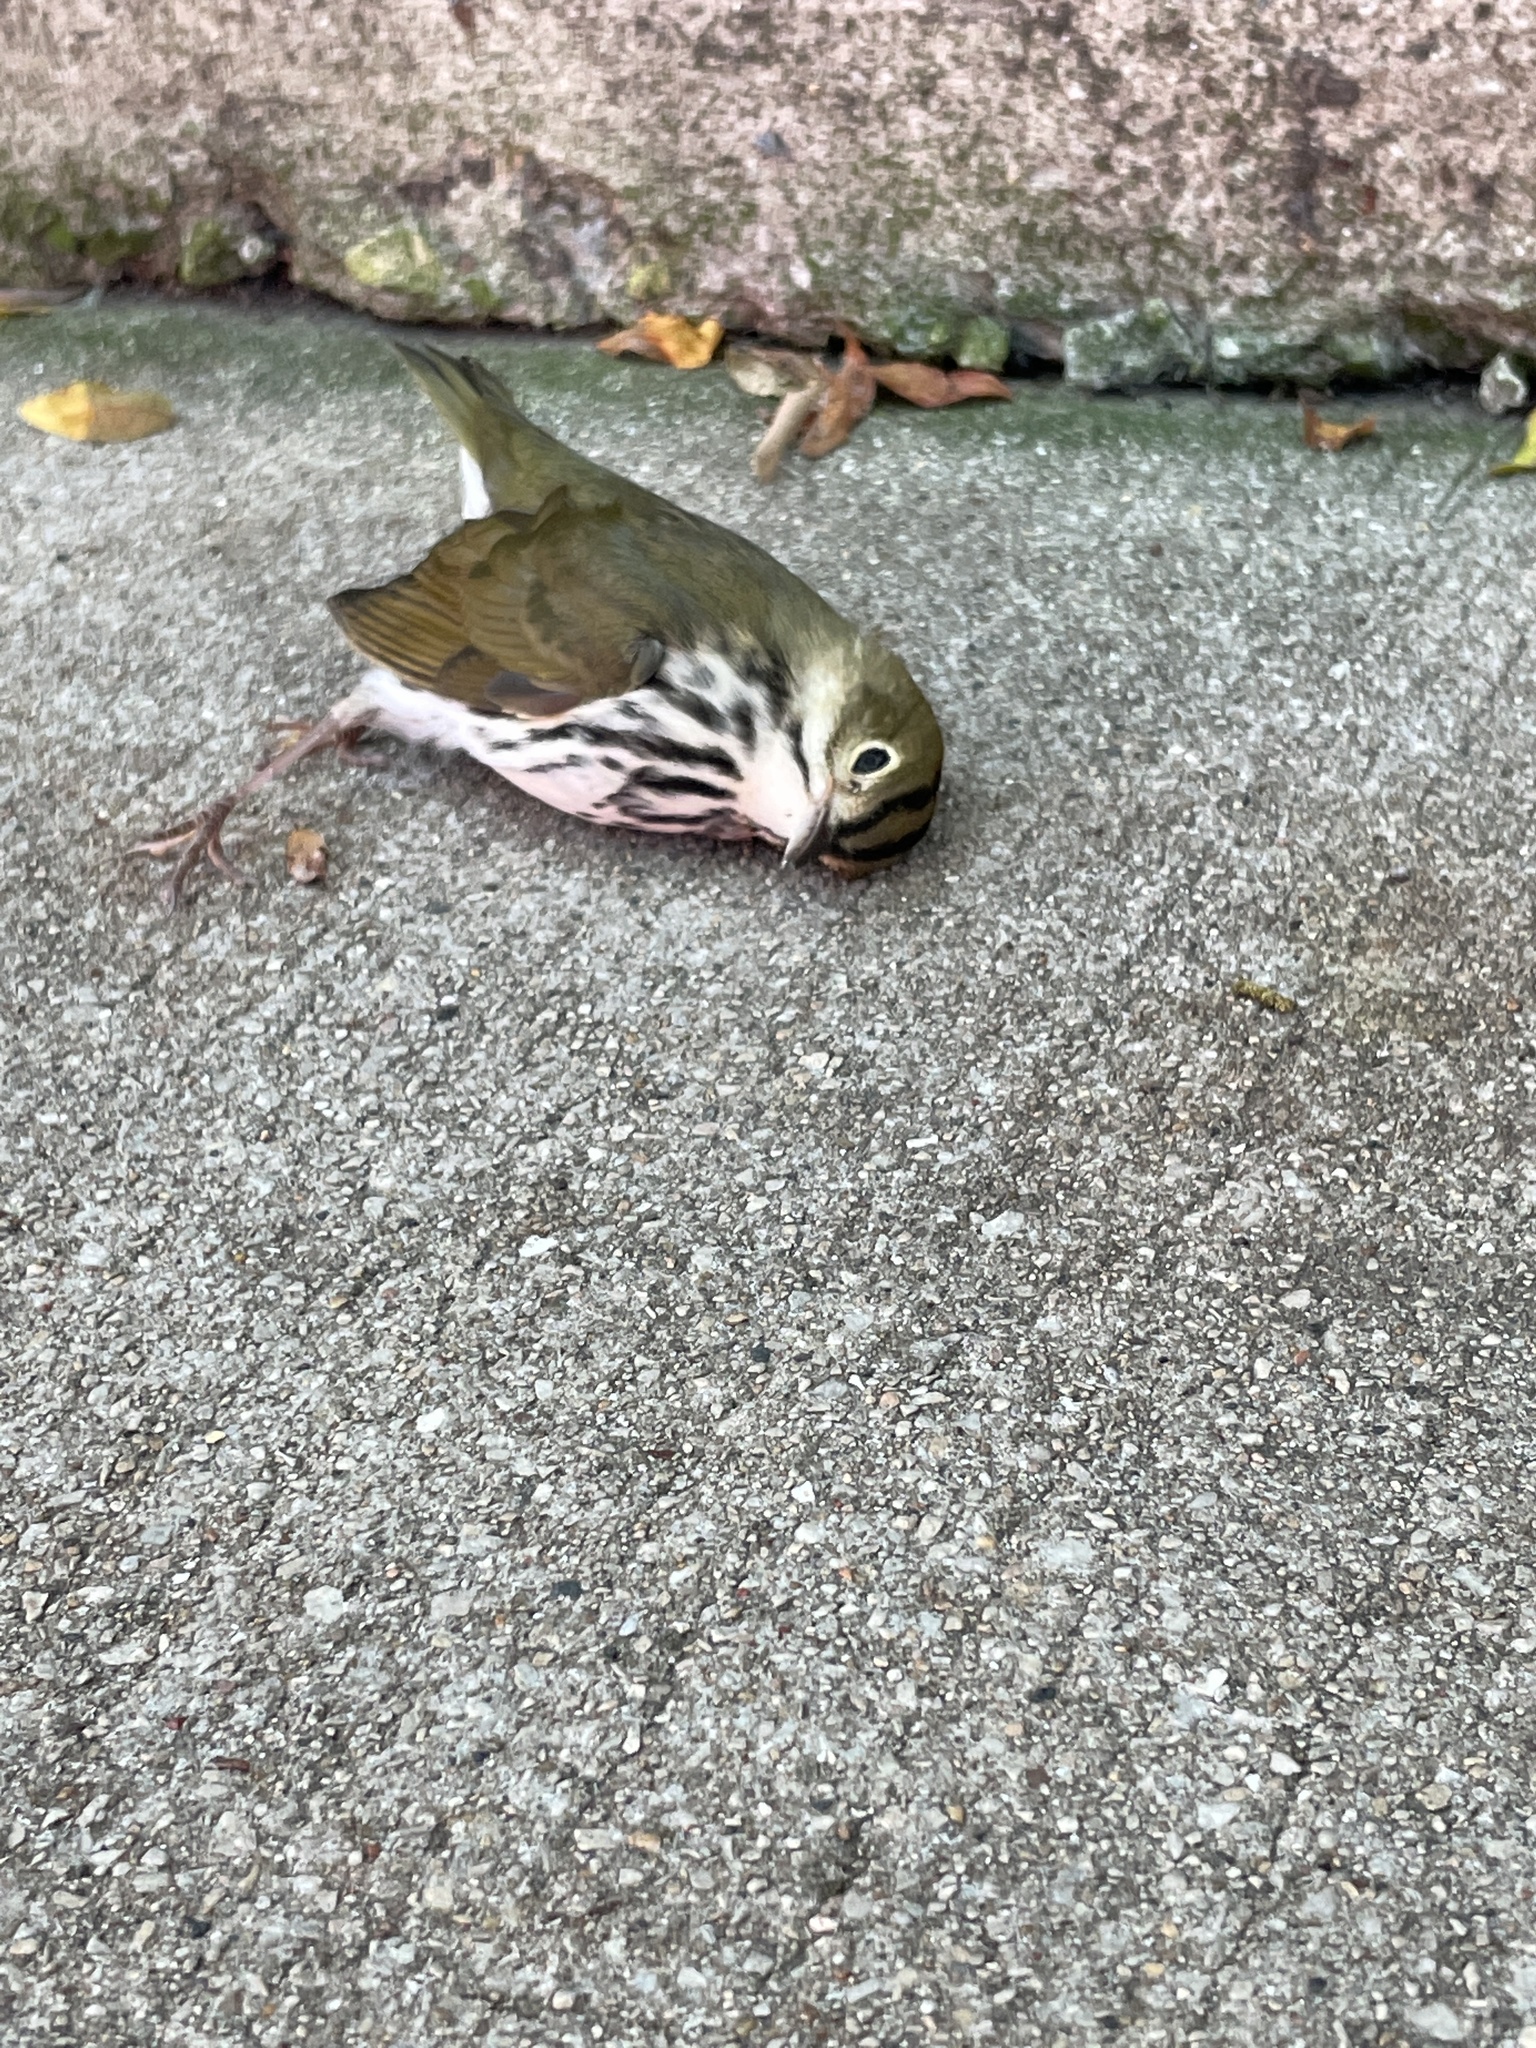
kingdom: Animalia
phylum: Chordata
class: Aves
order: Passeriformes
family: Parulidae
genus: Seiurus
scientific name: Seiurus aurocapilla
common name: Ovenbird
